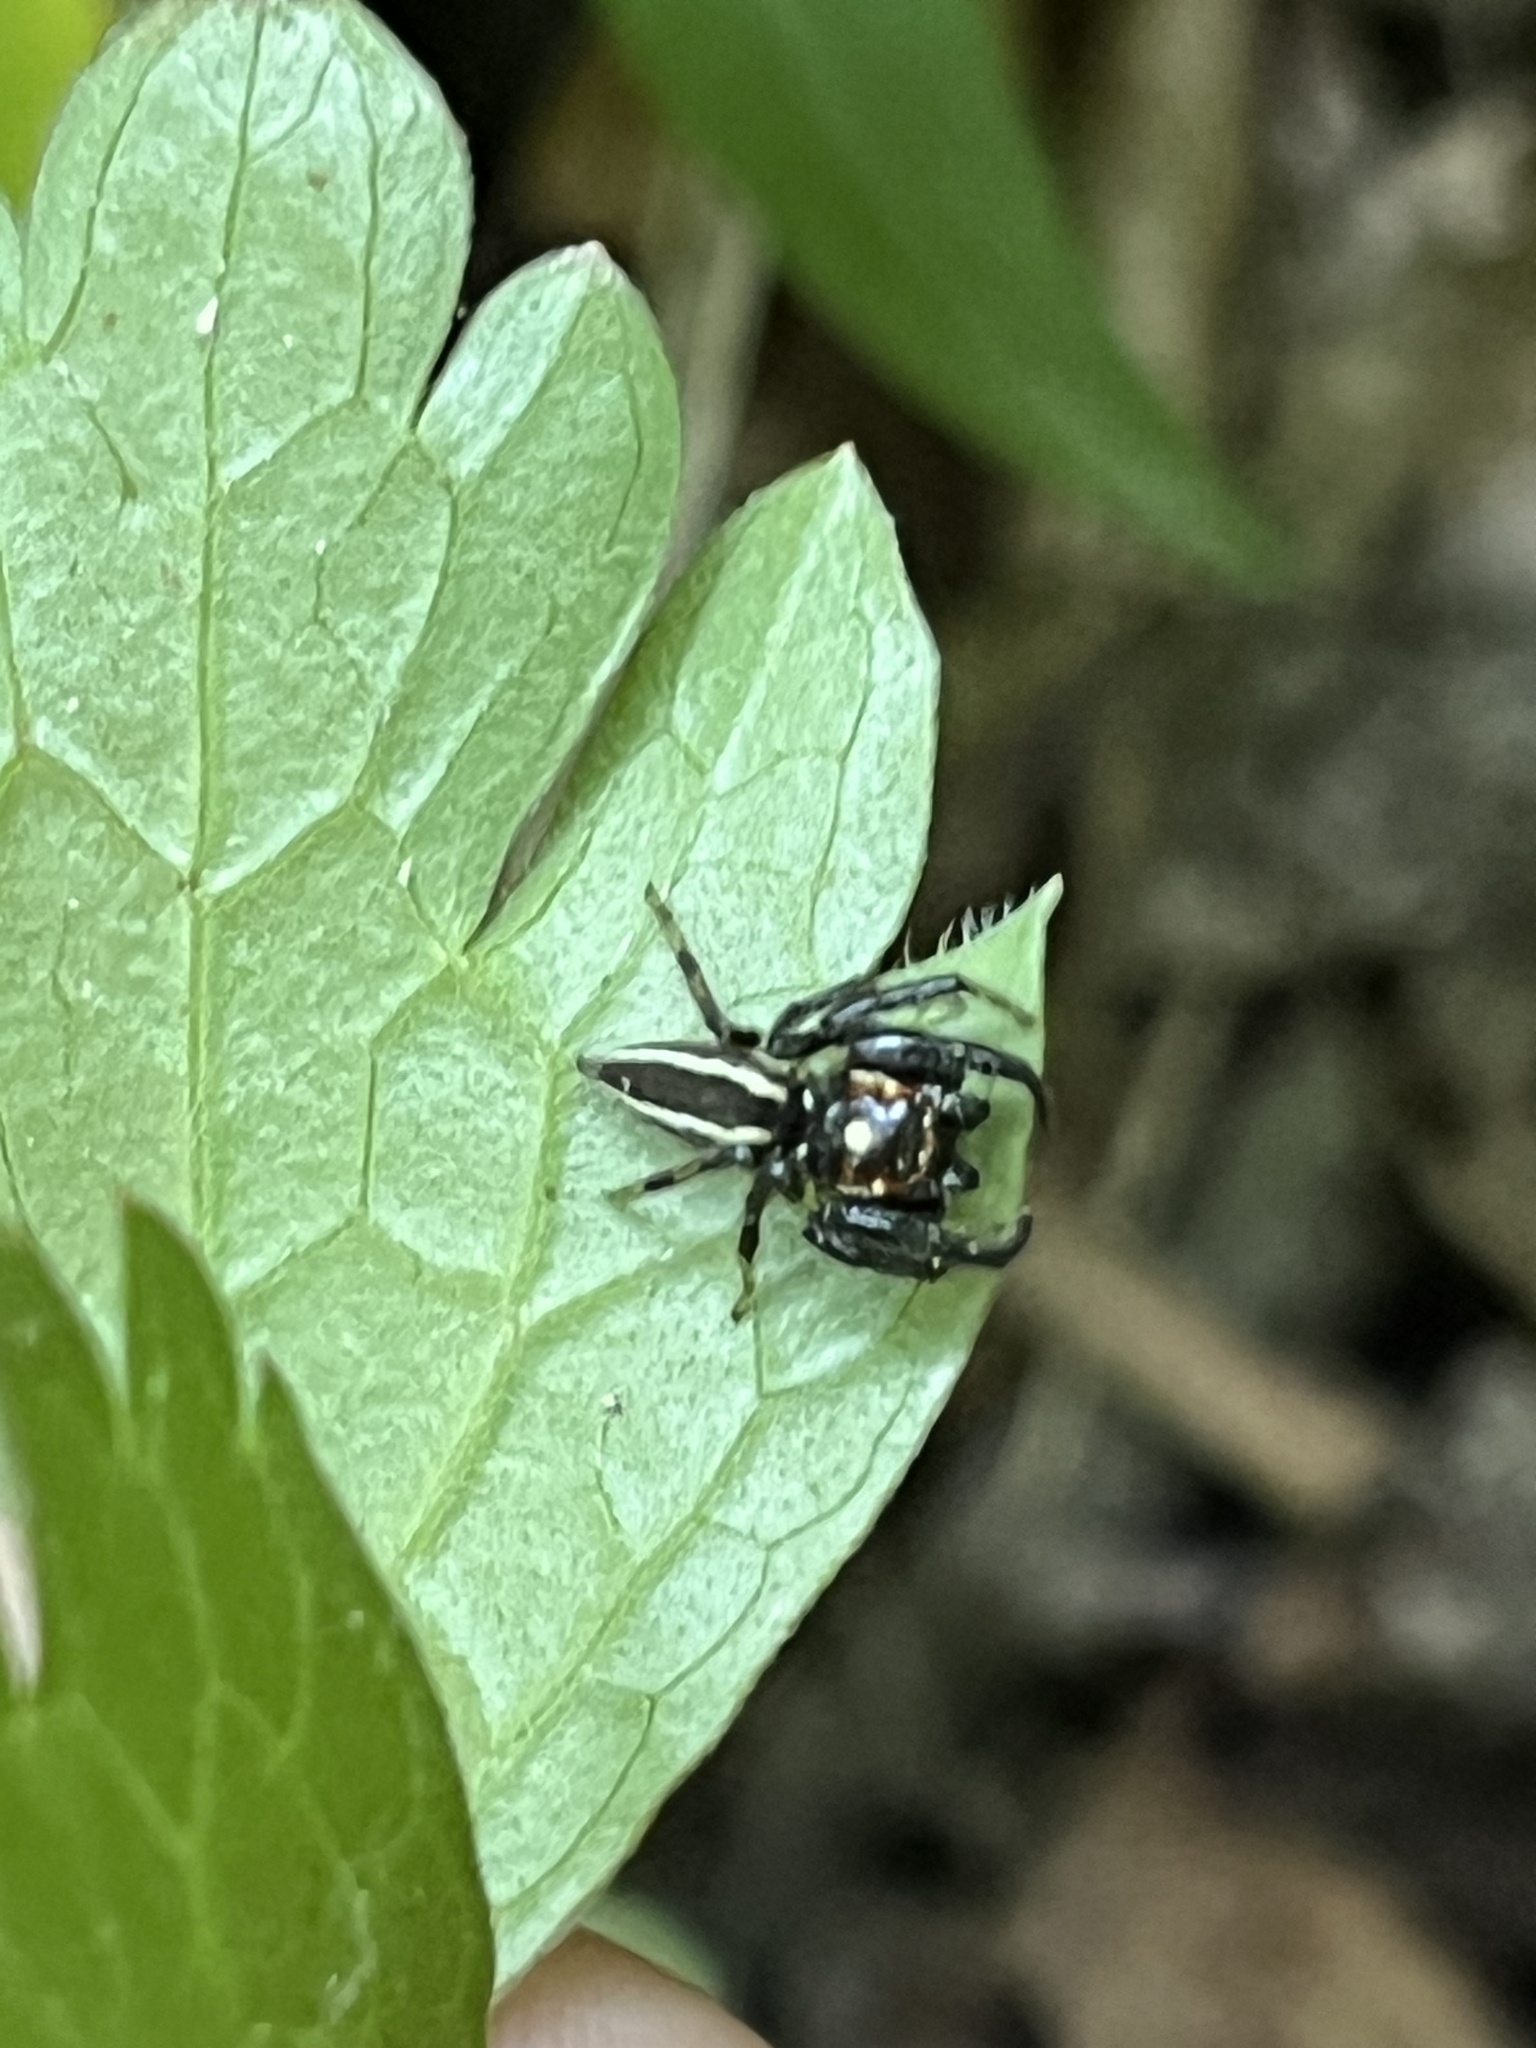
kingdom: Animalia
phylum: Arthropoda
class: Arachnida
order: Araneae
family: Salticidae
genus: Colonus
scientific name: Colonus sylvanus
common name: Jumping spiders
